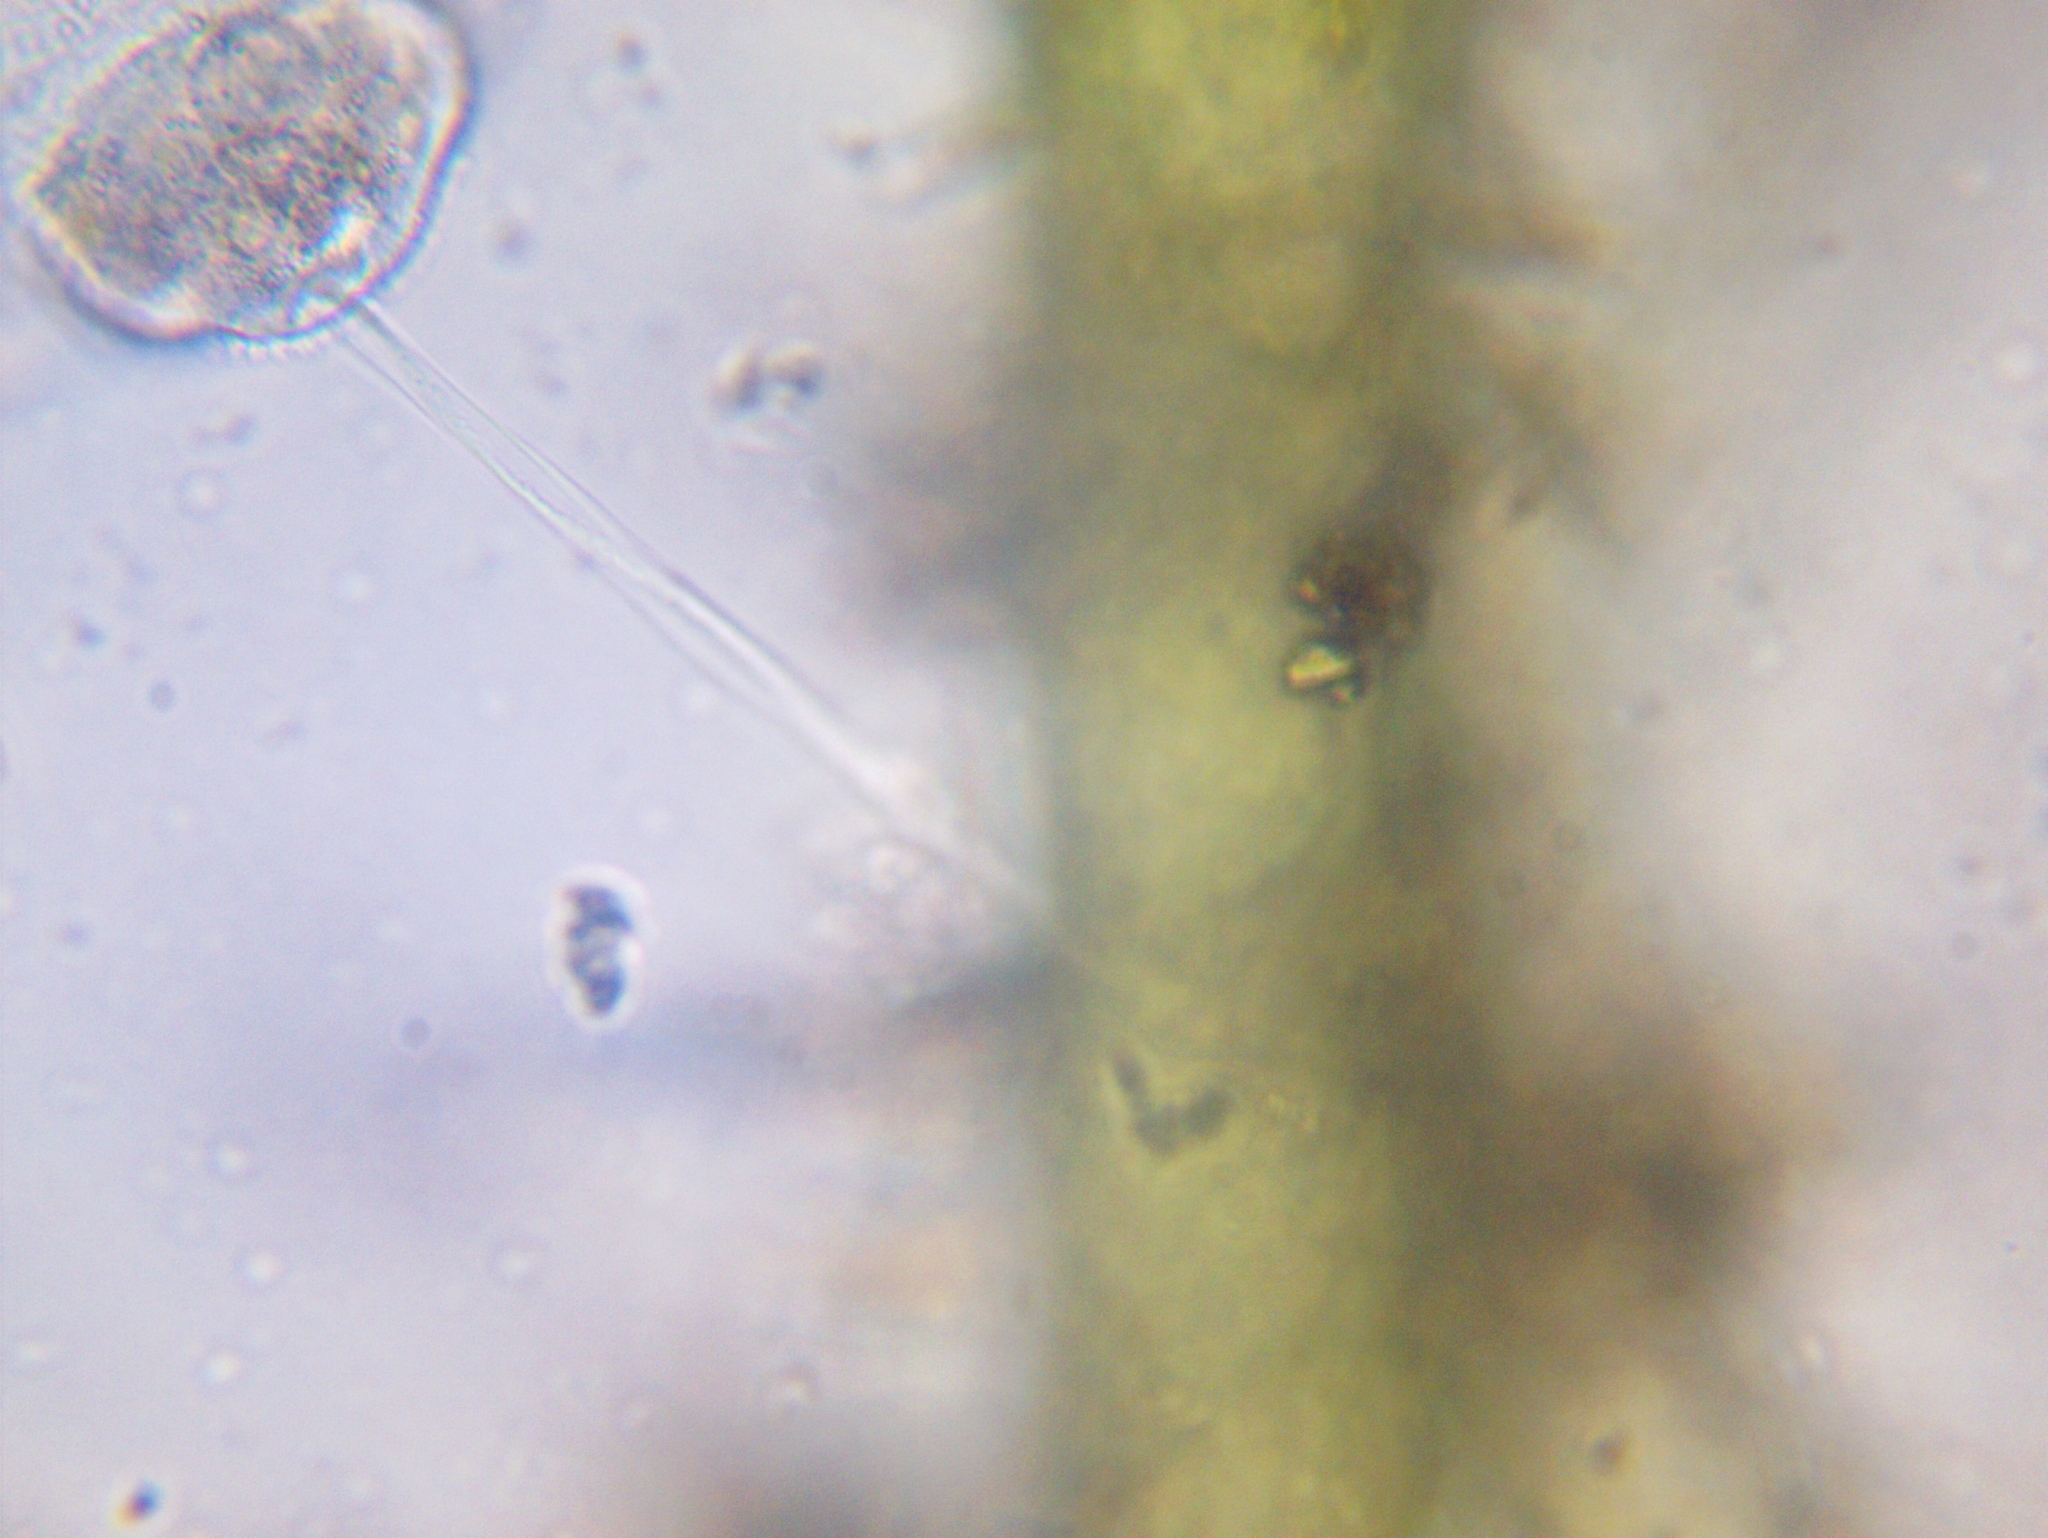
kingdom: Chromista
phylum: Ciliophora
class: Oligohymenophorea
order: Peritrichida
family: Vorticellidae
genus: Vorticella
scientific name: Vorticella campanulla
